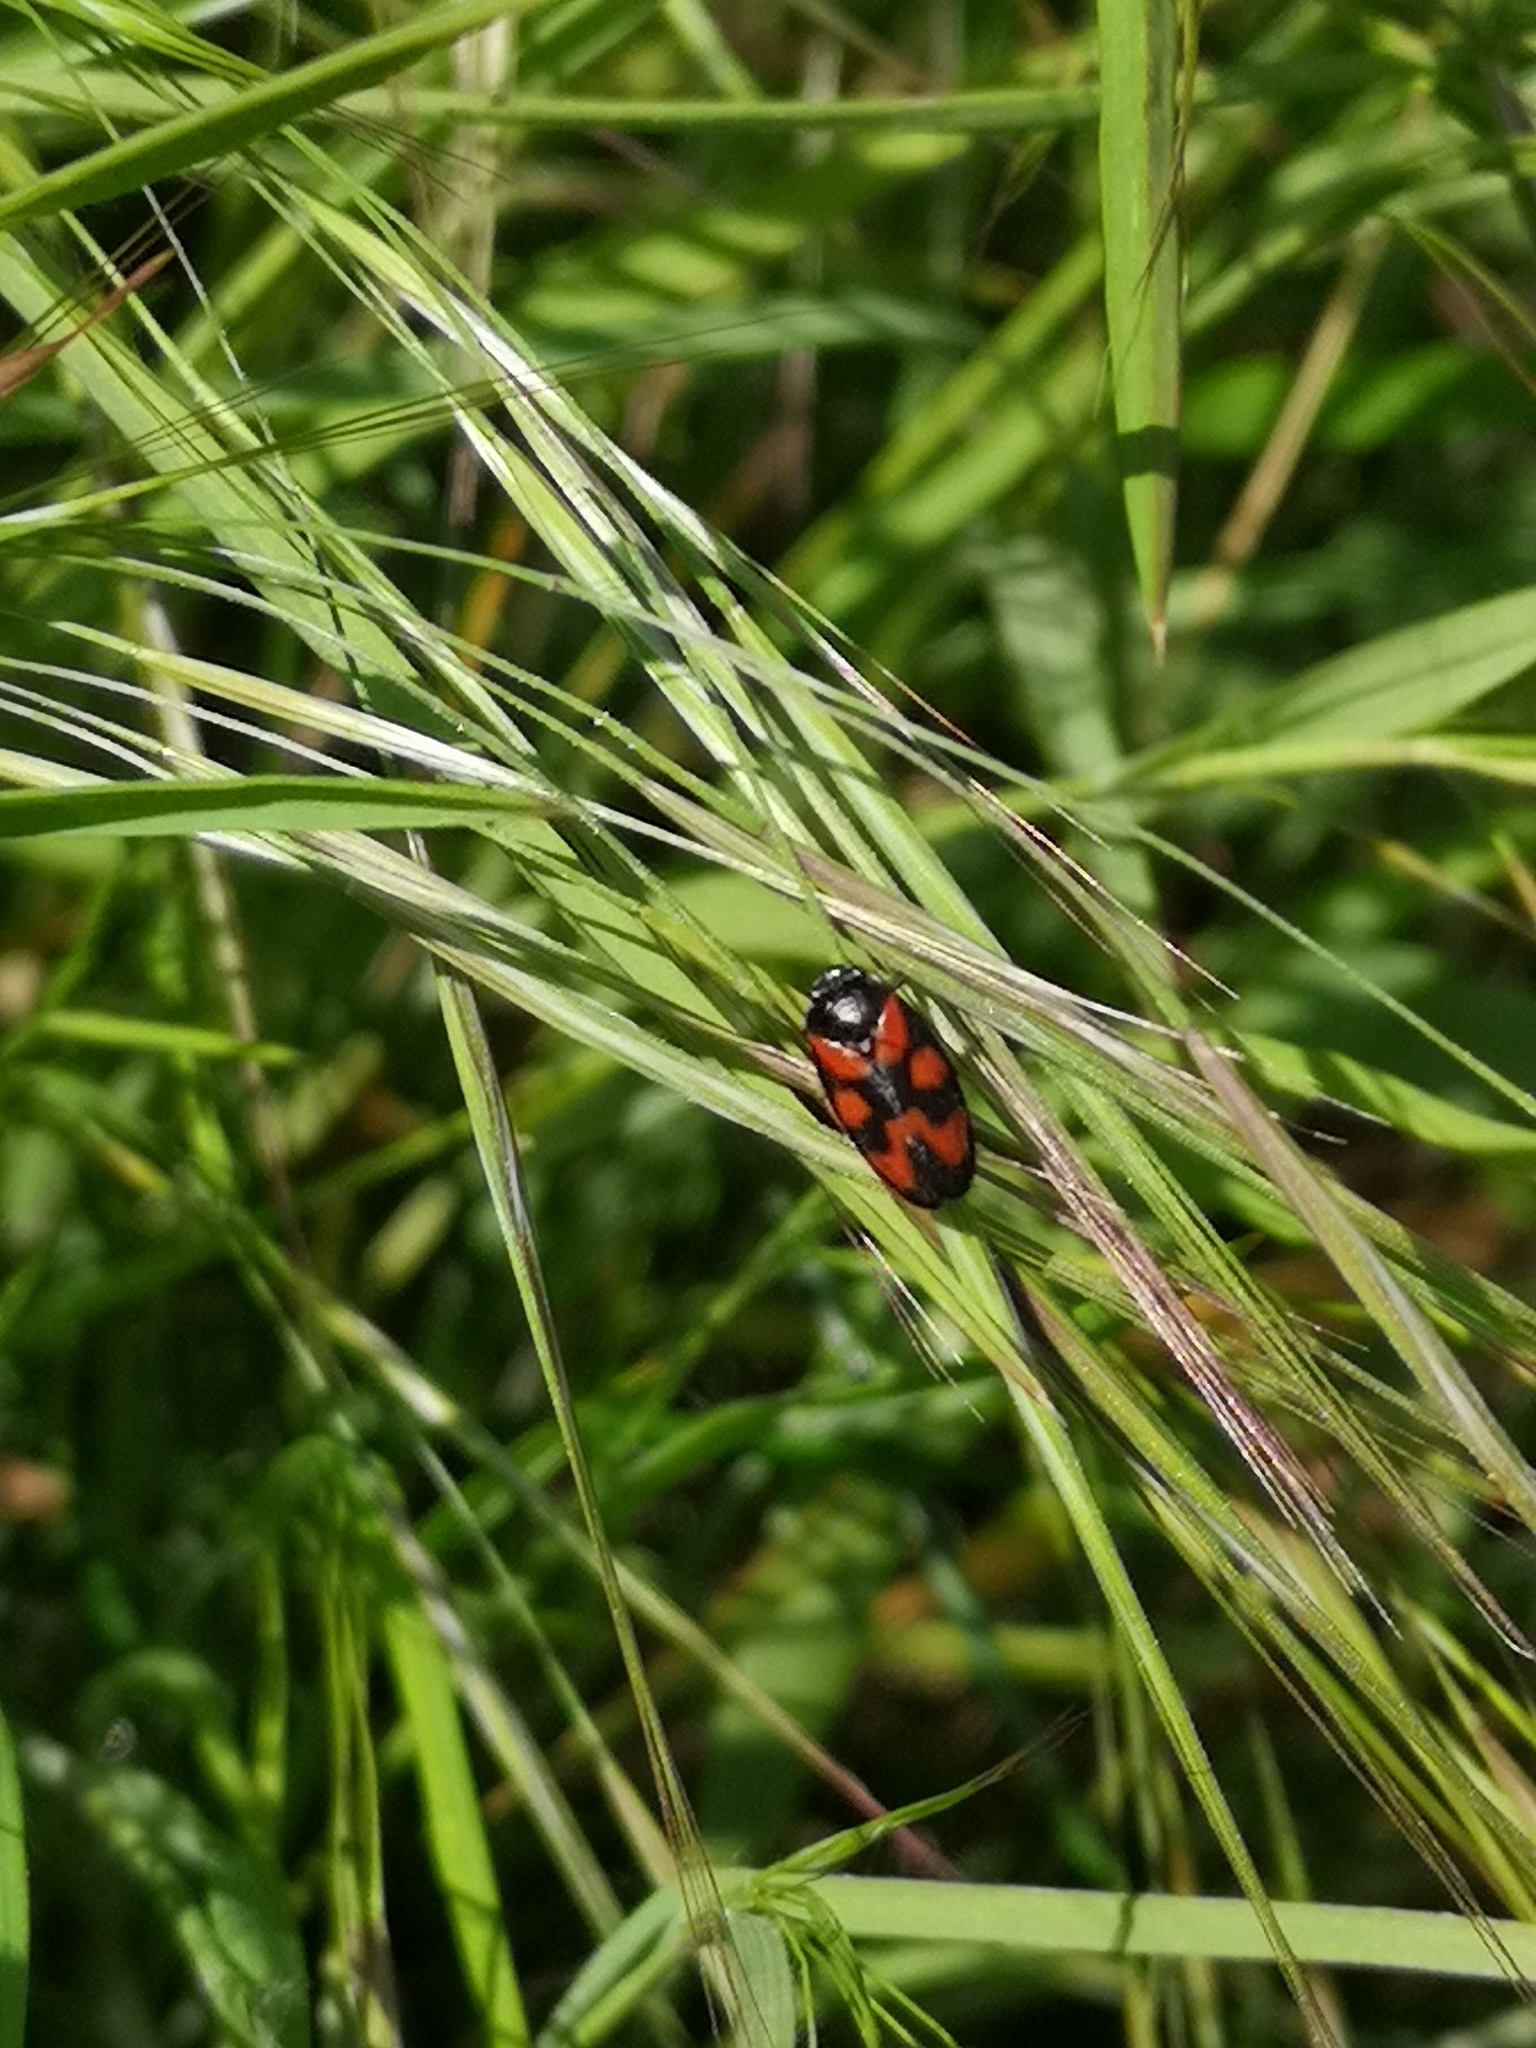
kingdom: Animalia
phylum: Arthropoda
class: Insecta
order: Hemiptera
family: Cercopidae
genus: Cercopis
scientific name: Cercopis vulnerata
